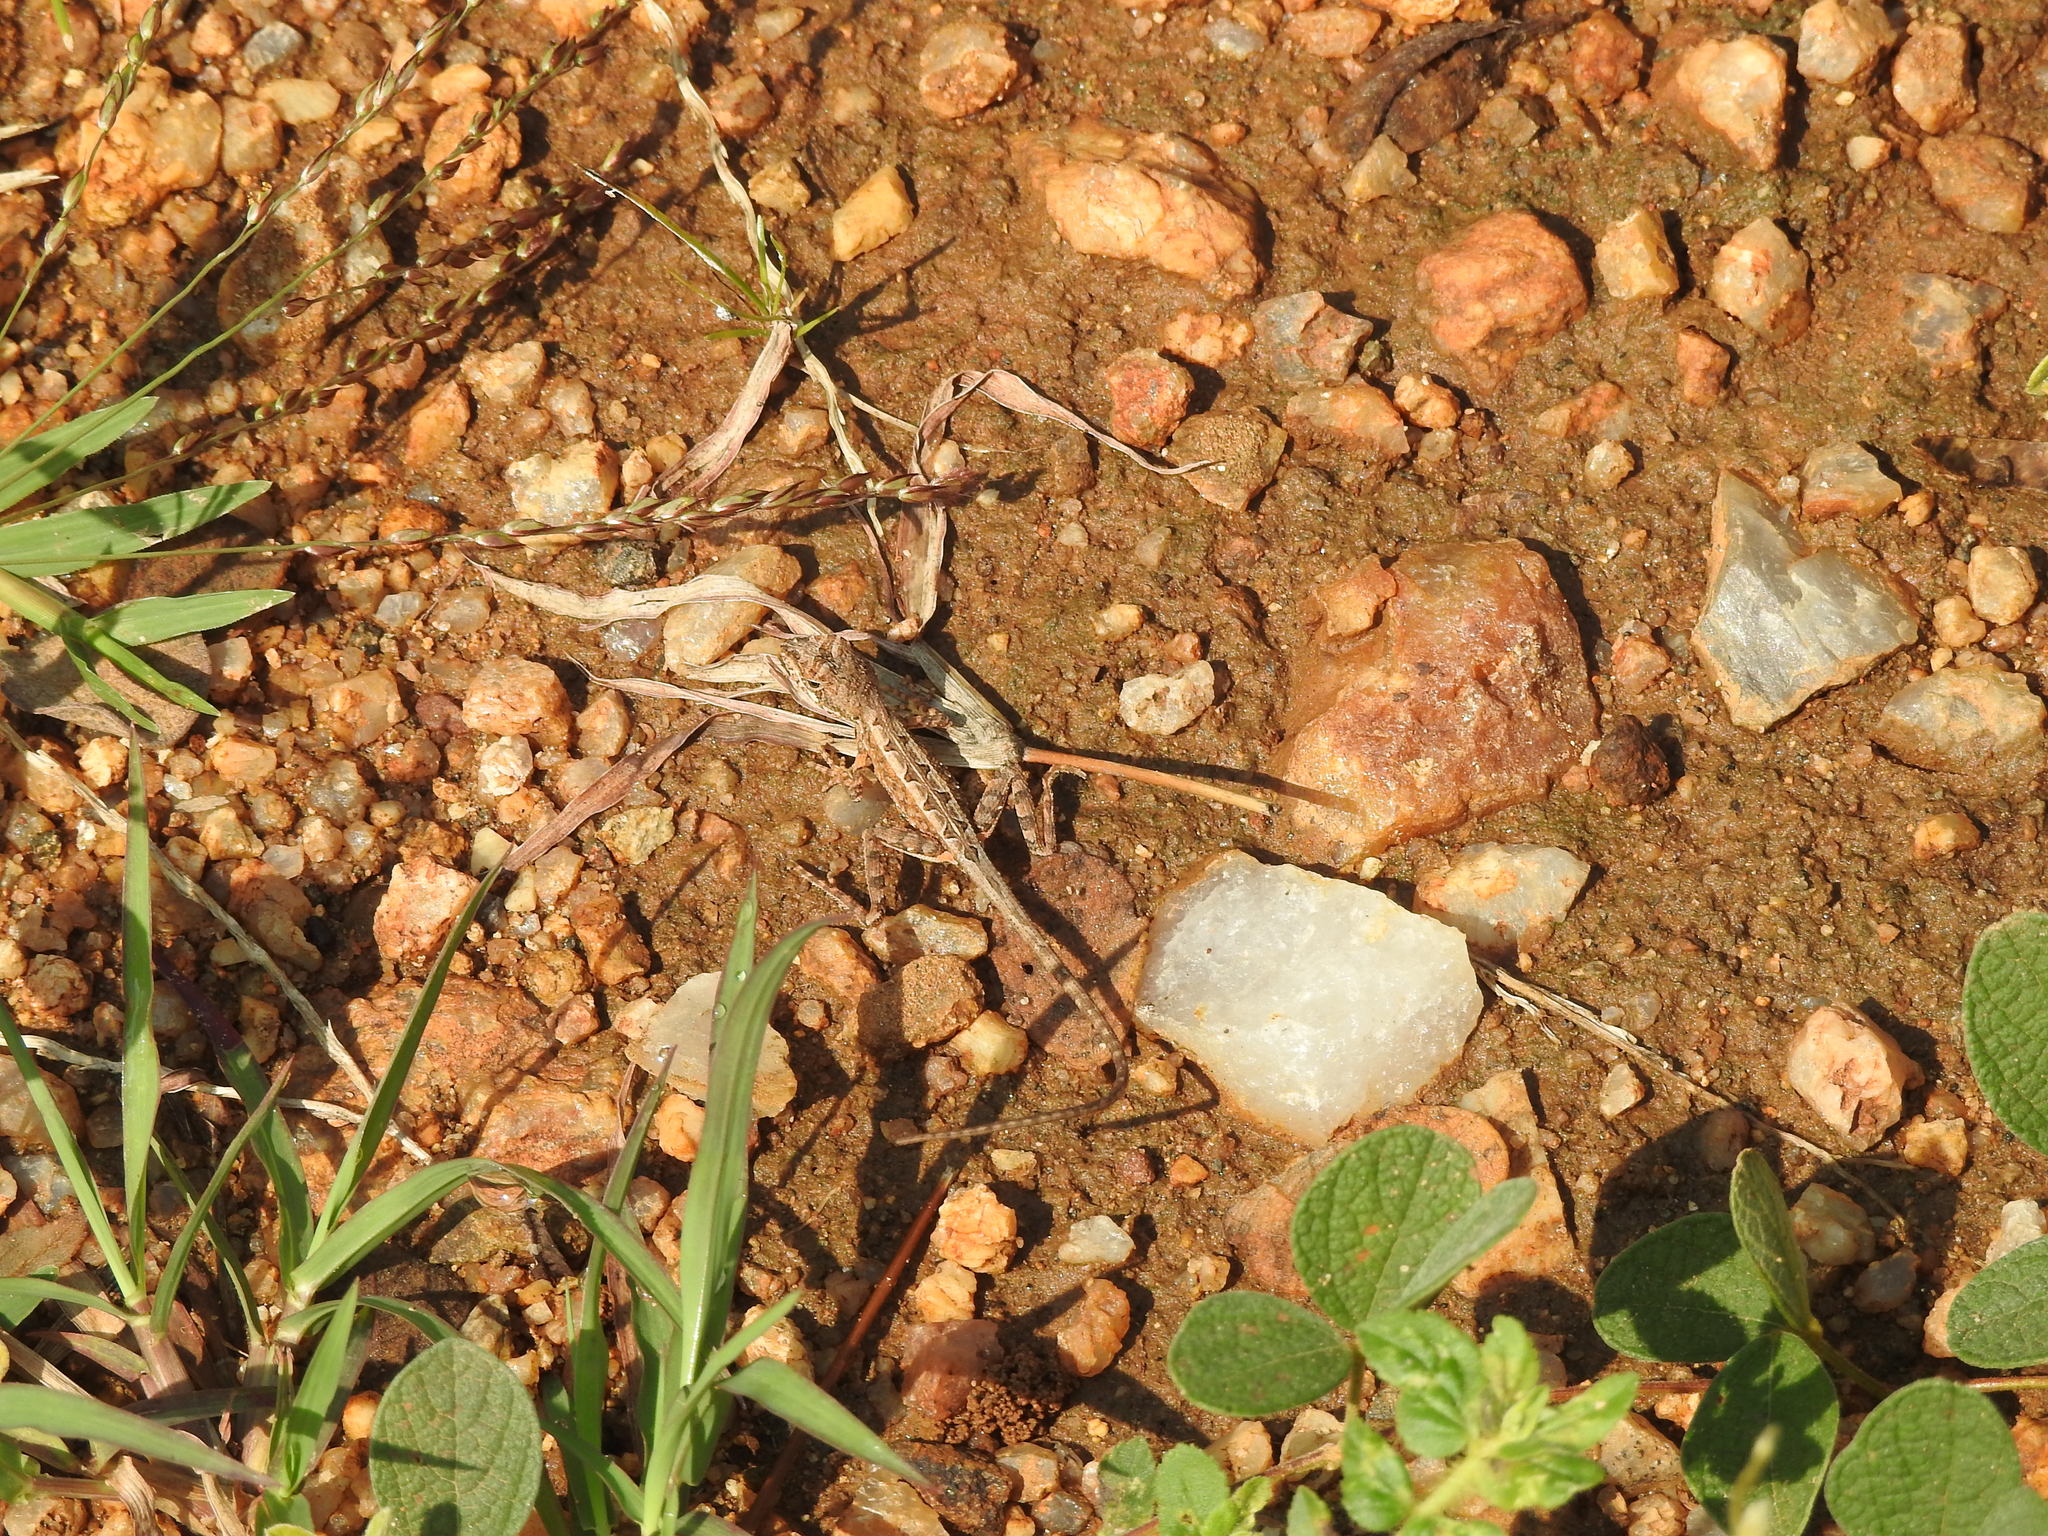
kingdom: Animalia
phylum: Chordata
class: Squamata
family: Agamidae
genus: Sitana
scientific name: Sitana ponticeriana
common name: Pondichéry fan throated lizard
